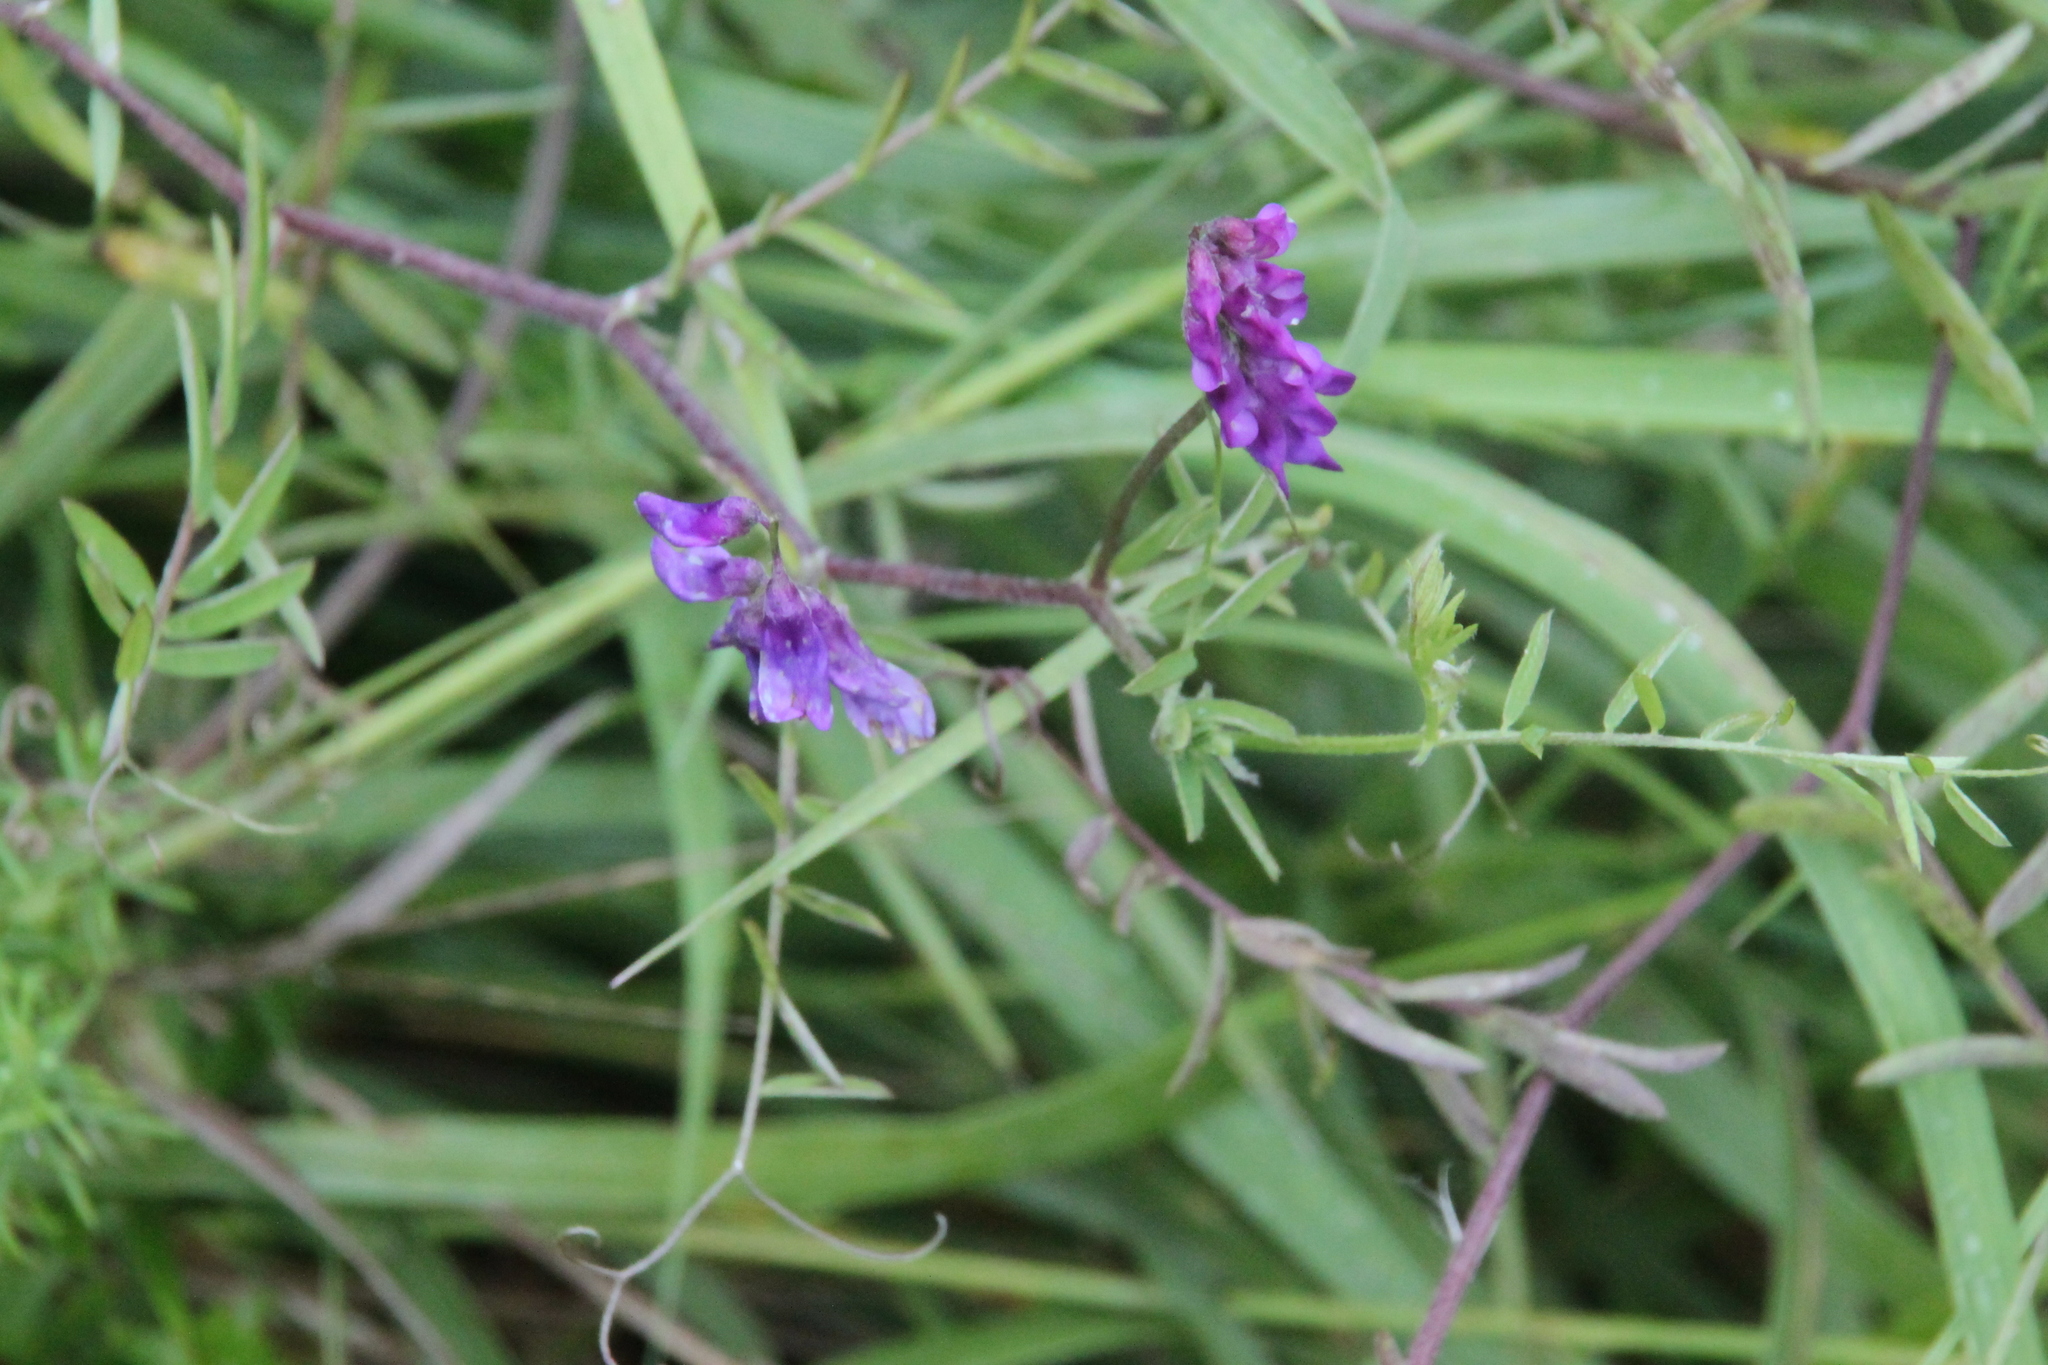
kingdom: Plantae
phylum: Tracheophyta
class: Magnoliopsida
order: Fabales
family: Fabaceae
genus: Vicia
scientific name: Vicia cracca
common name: Bird vetch
